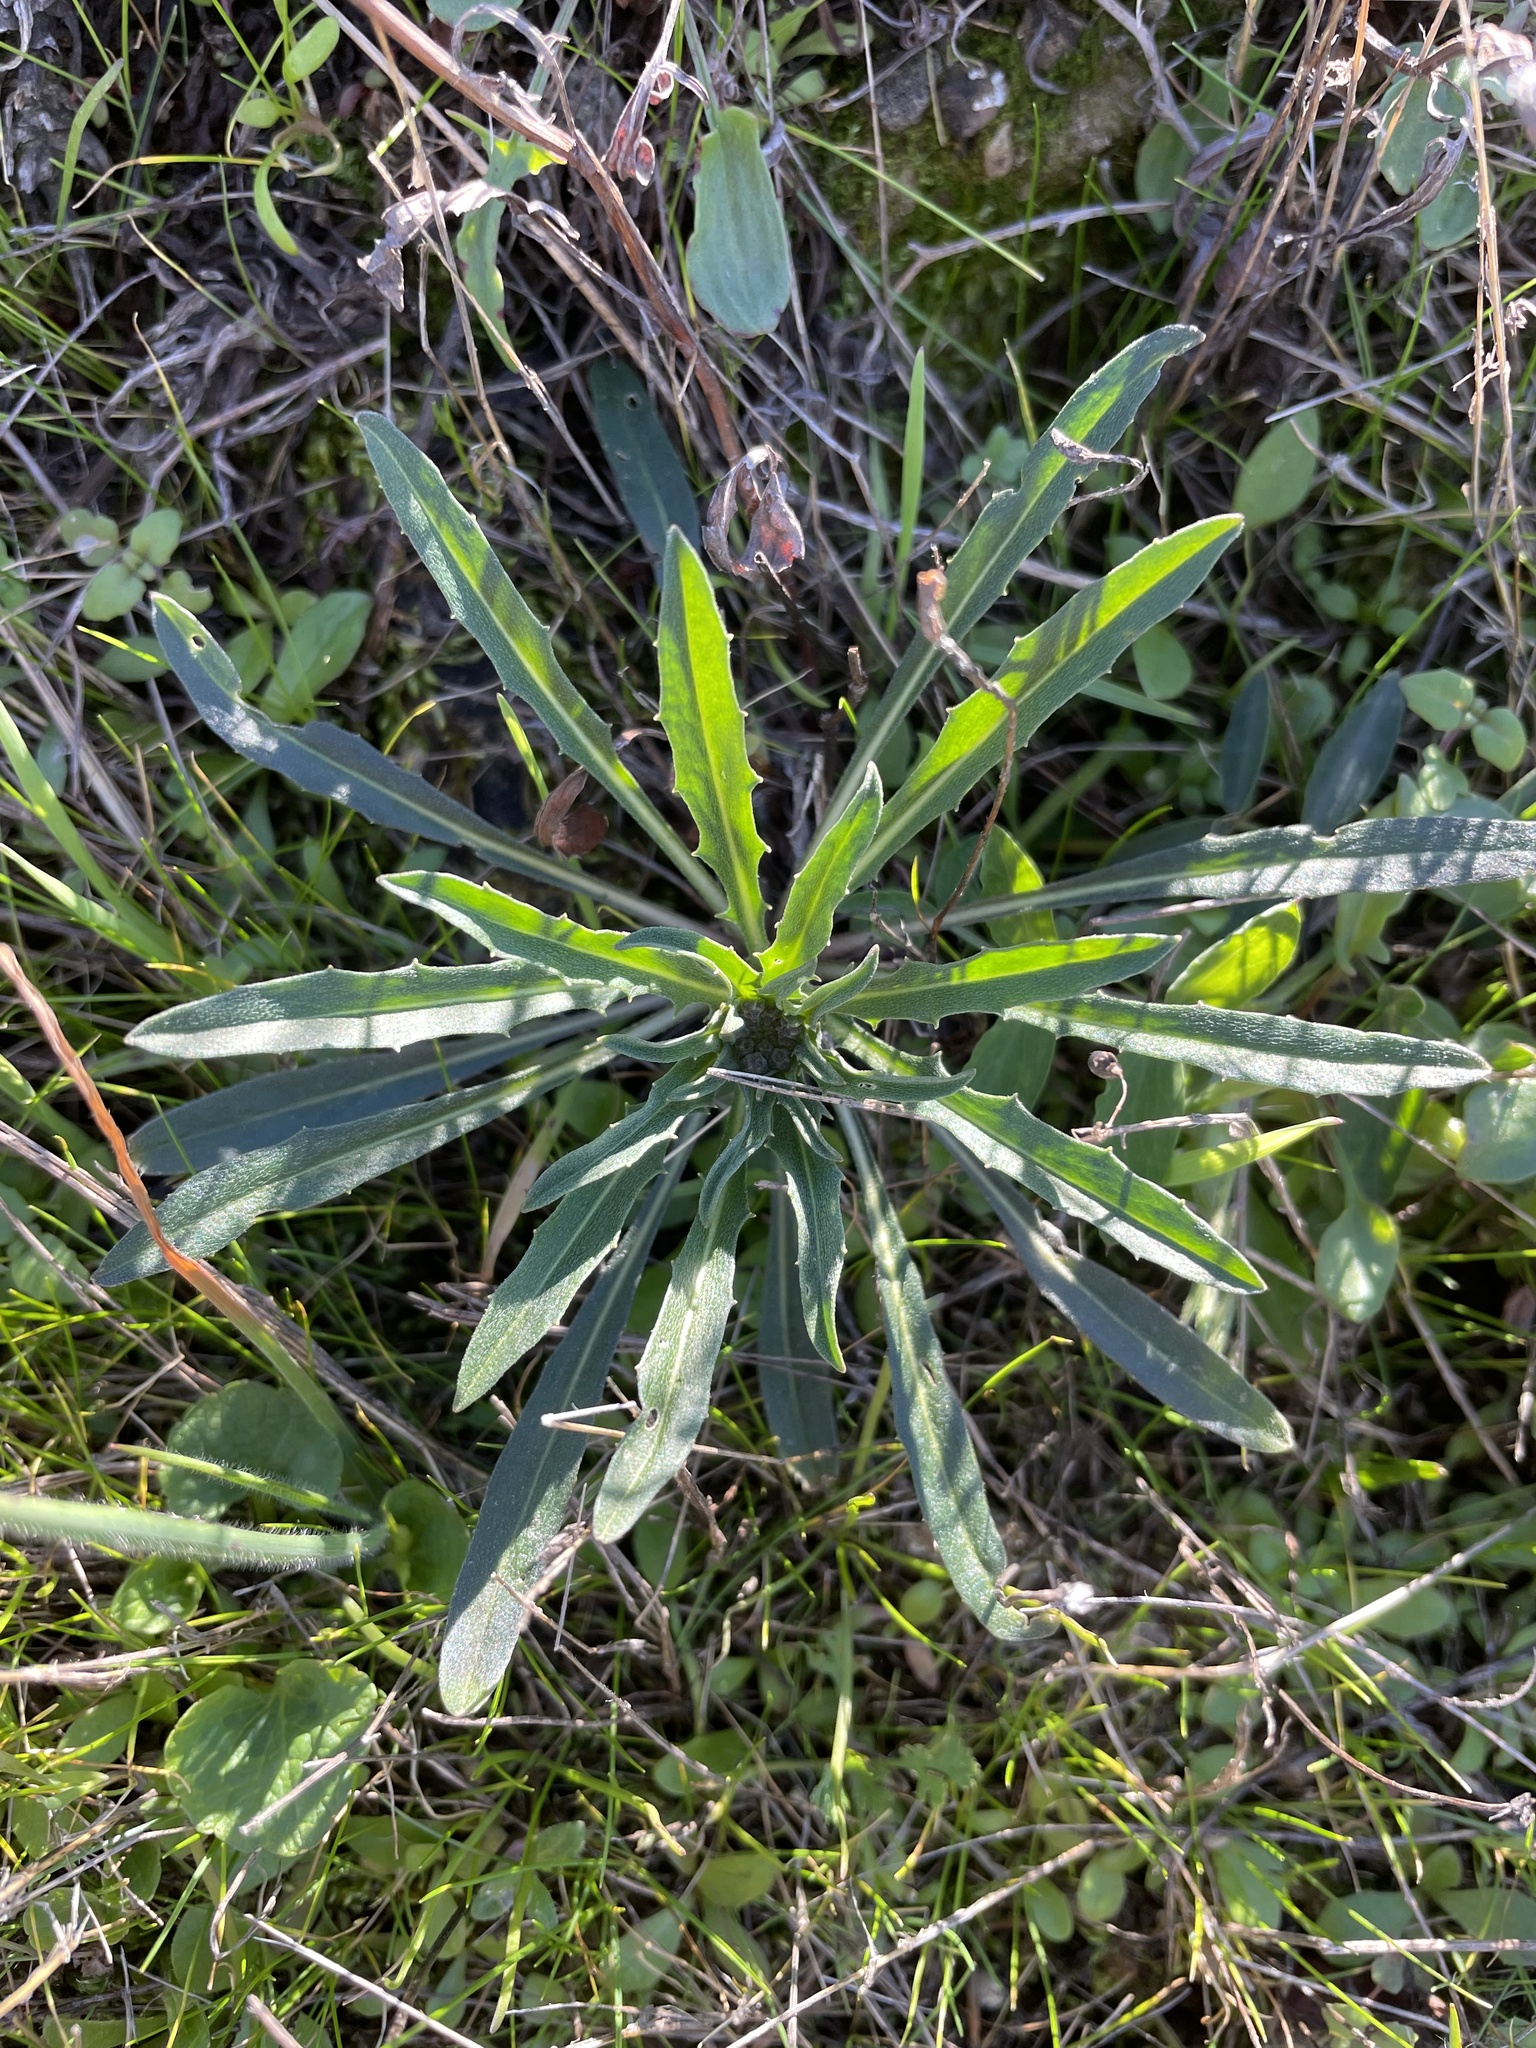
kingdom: Plantae
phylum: Tracheophyta
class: Magnoliopsida
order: Brassicales
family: Brassicaceae
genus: Erysimum
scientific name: Erysimum franciscanum
